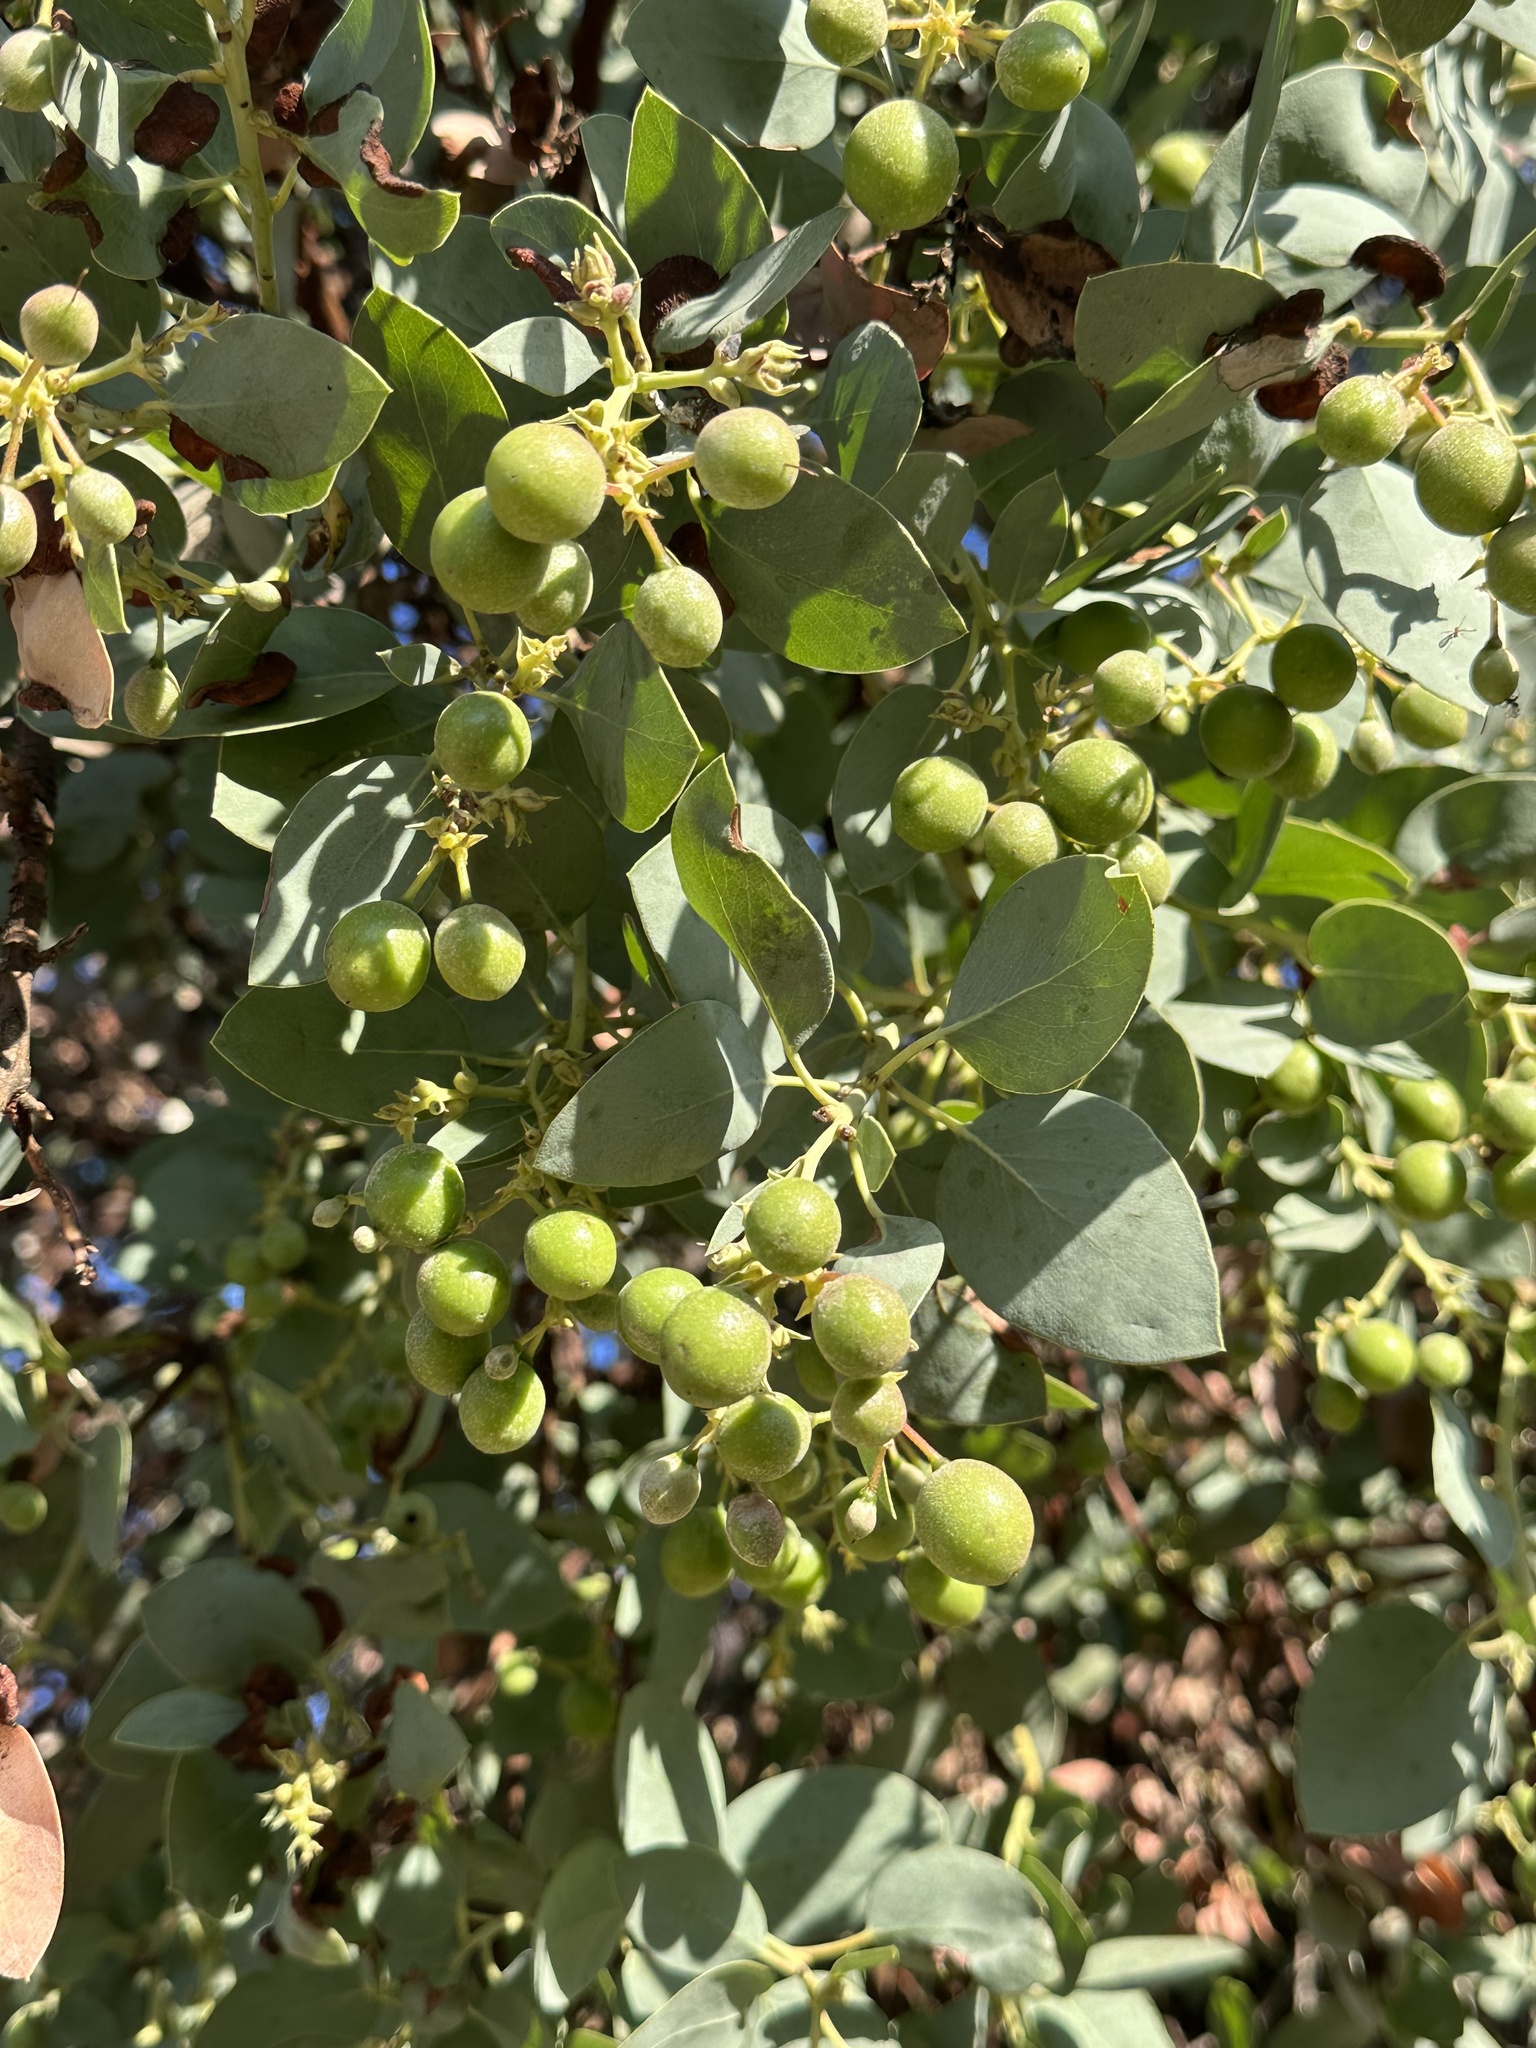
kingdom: Plantae
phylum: Tracheophyta
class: Magnoliopsida
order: Ericales
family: Ericaceae
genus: Arctostaphylos
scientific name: Arctostaphylos glauca
